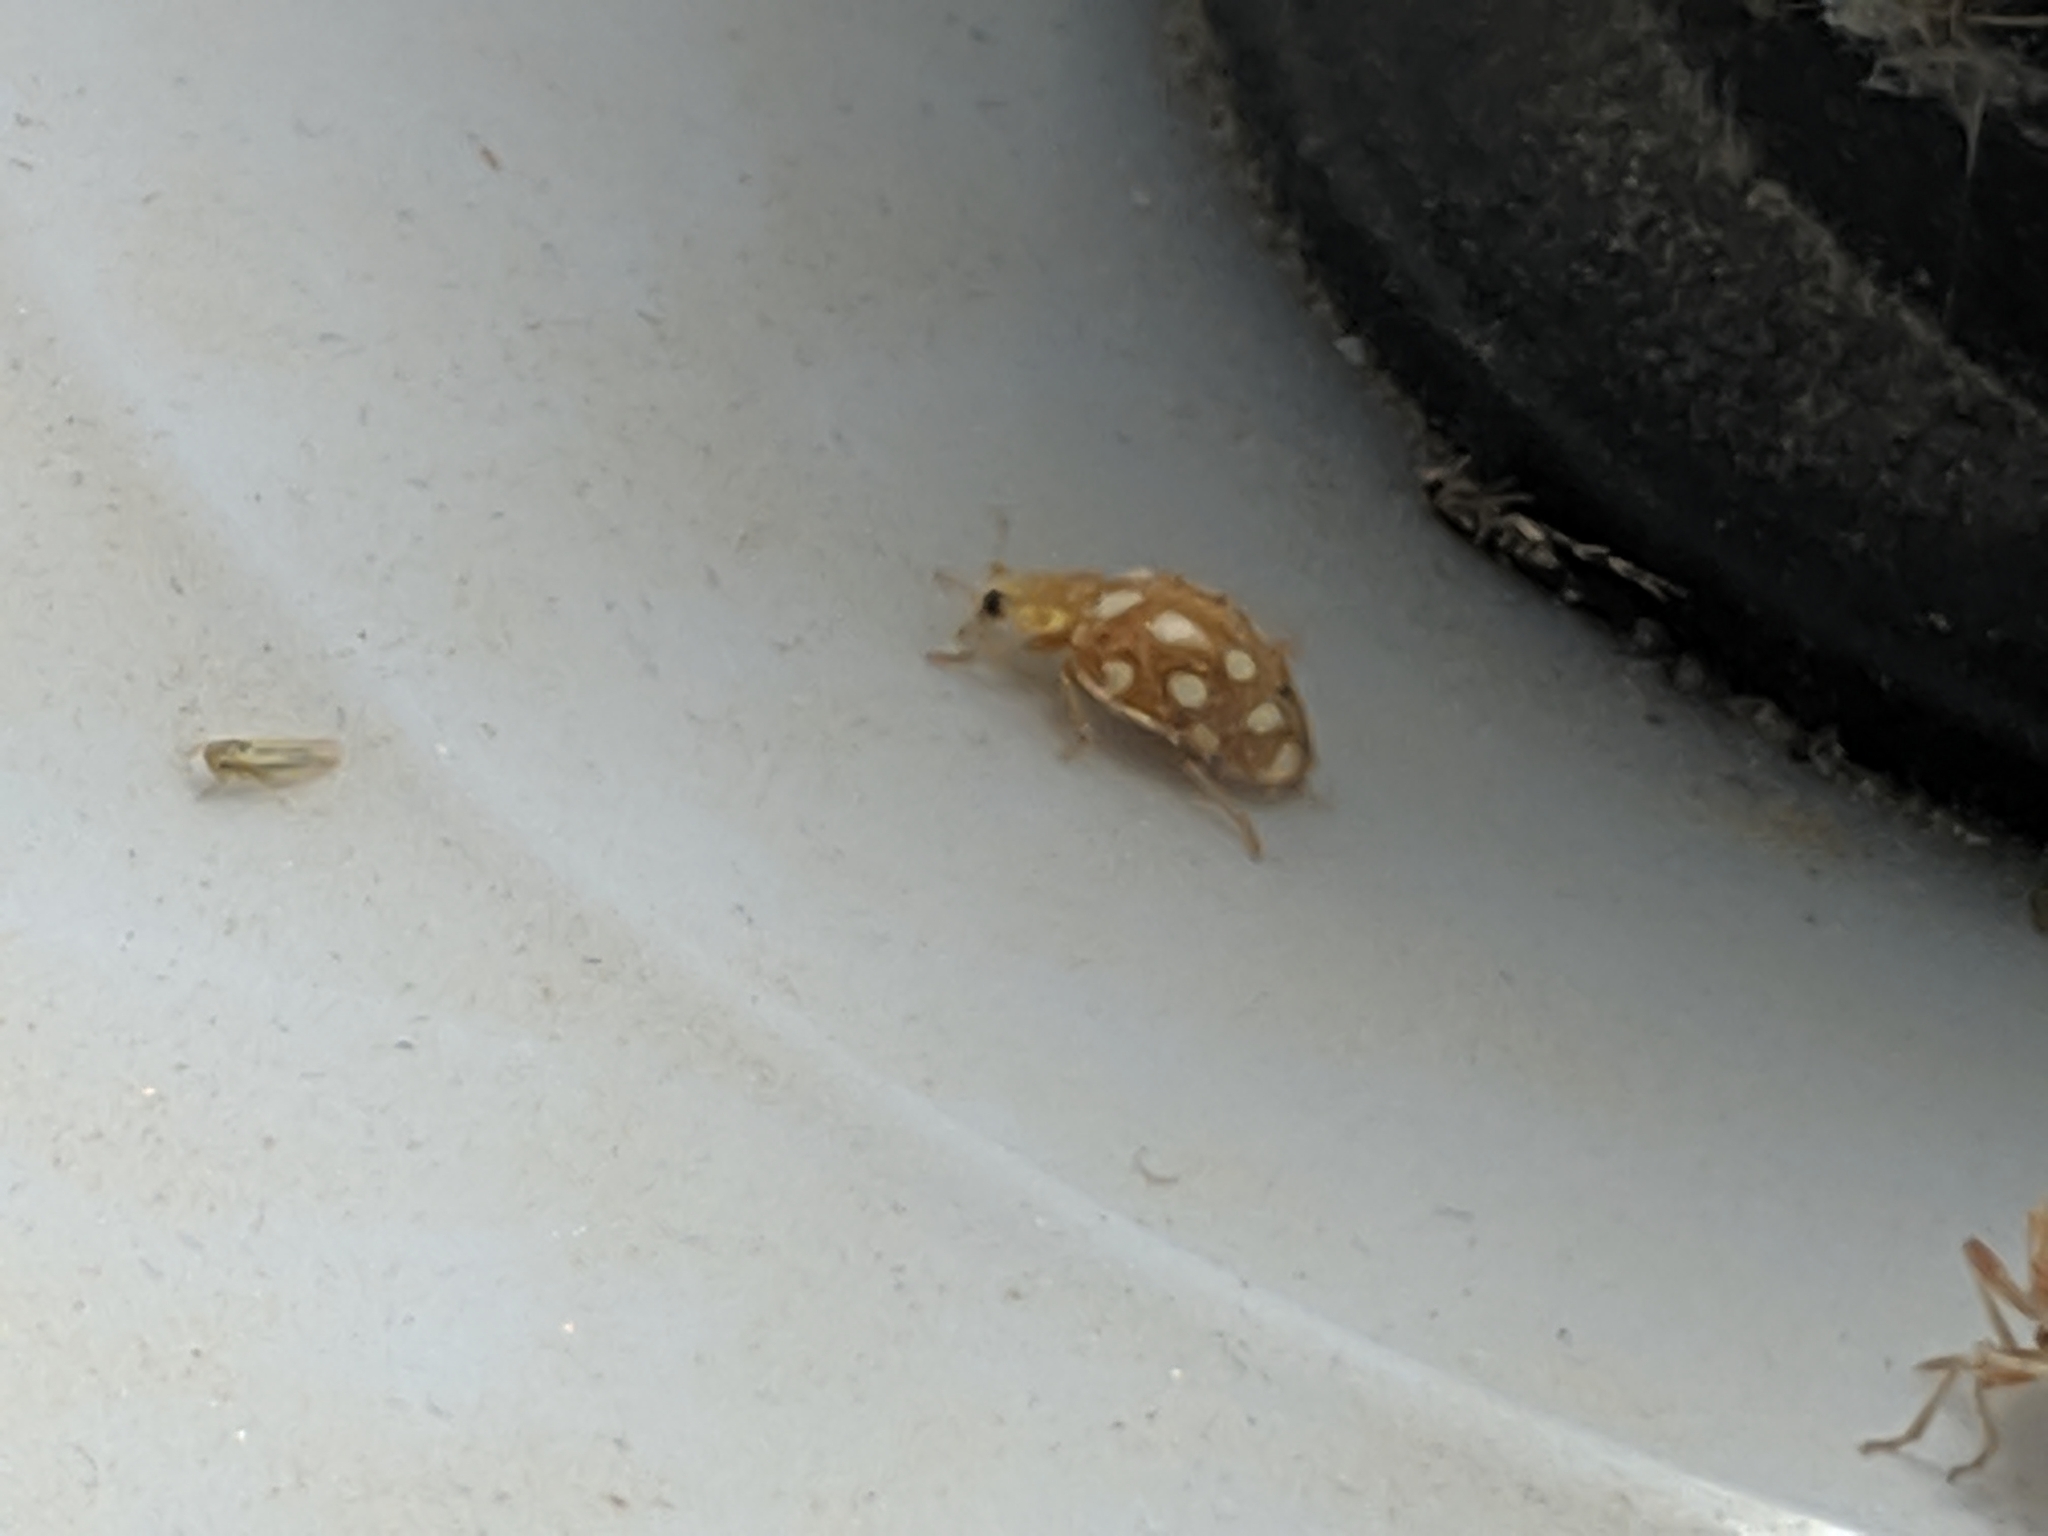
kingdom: Animalia
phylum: Arthropoda
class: Insecta
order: Coleoptera
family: Coccinellidae
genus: Halyzia
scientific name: Halyzia sedecimguttata
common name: Orange ladybird
